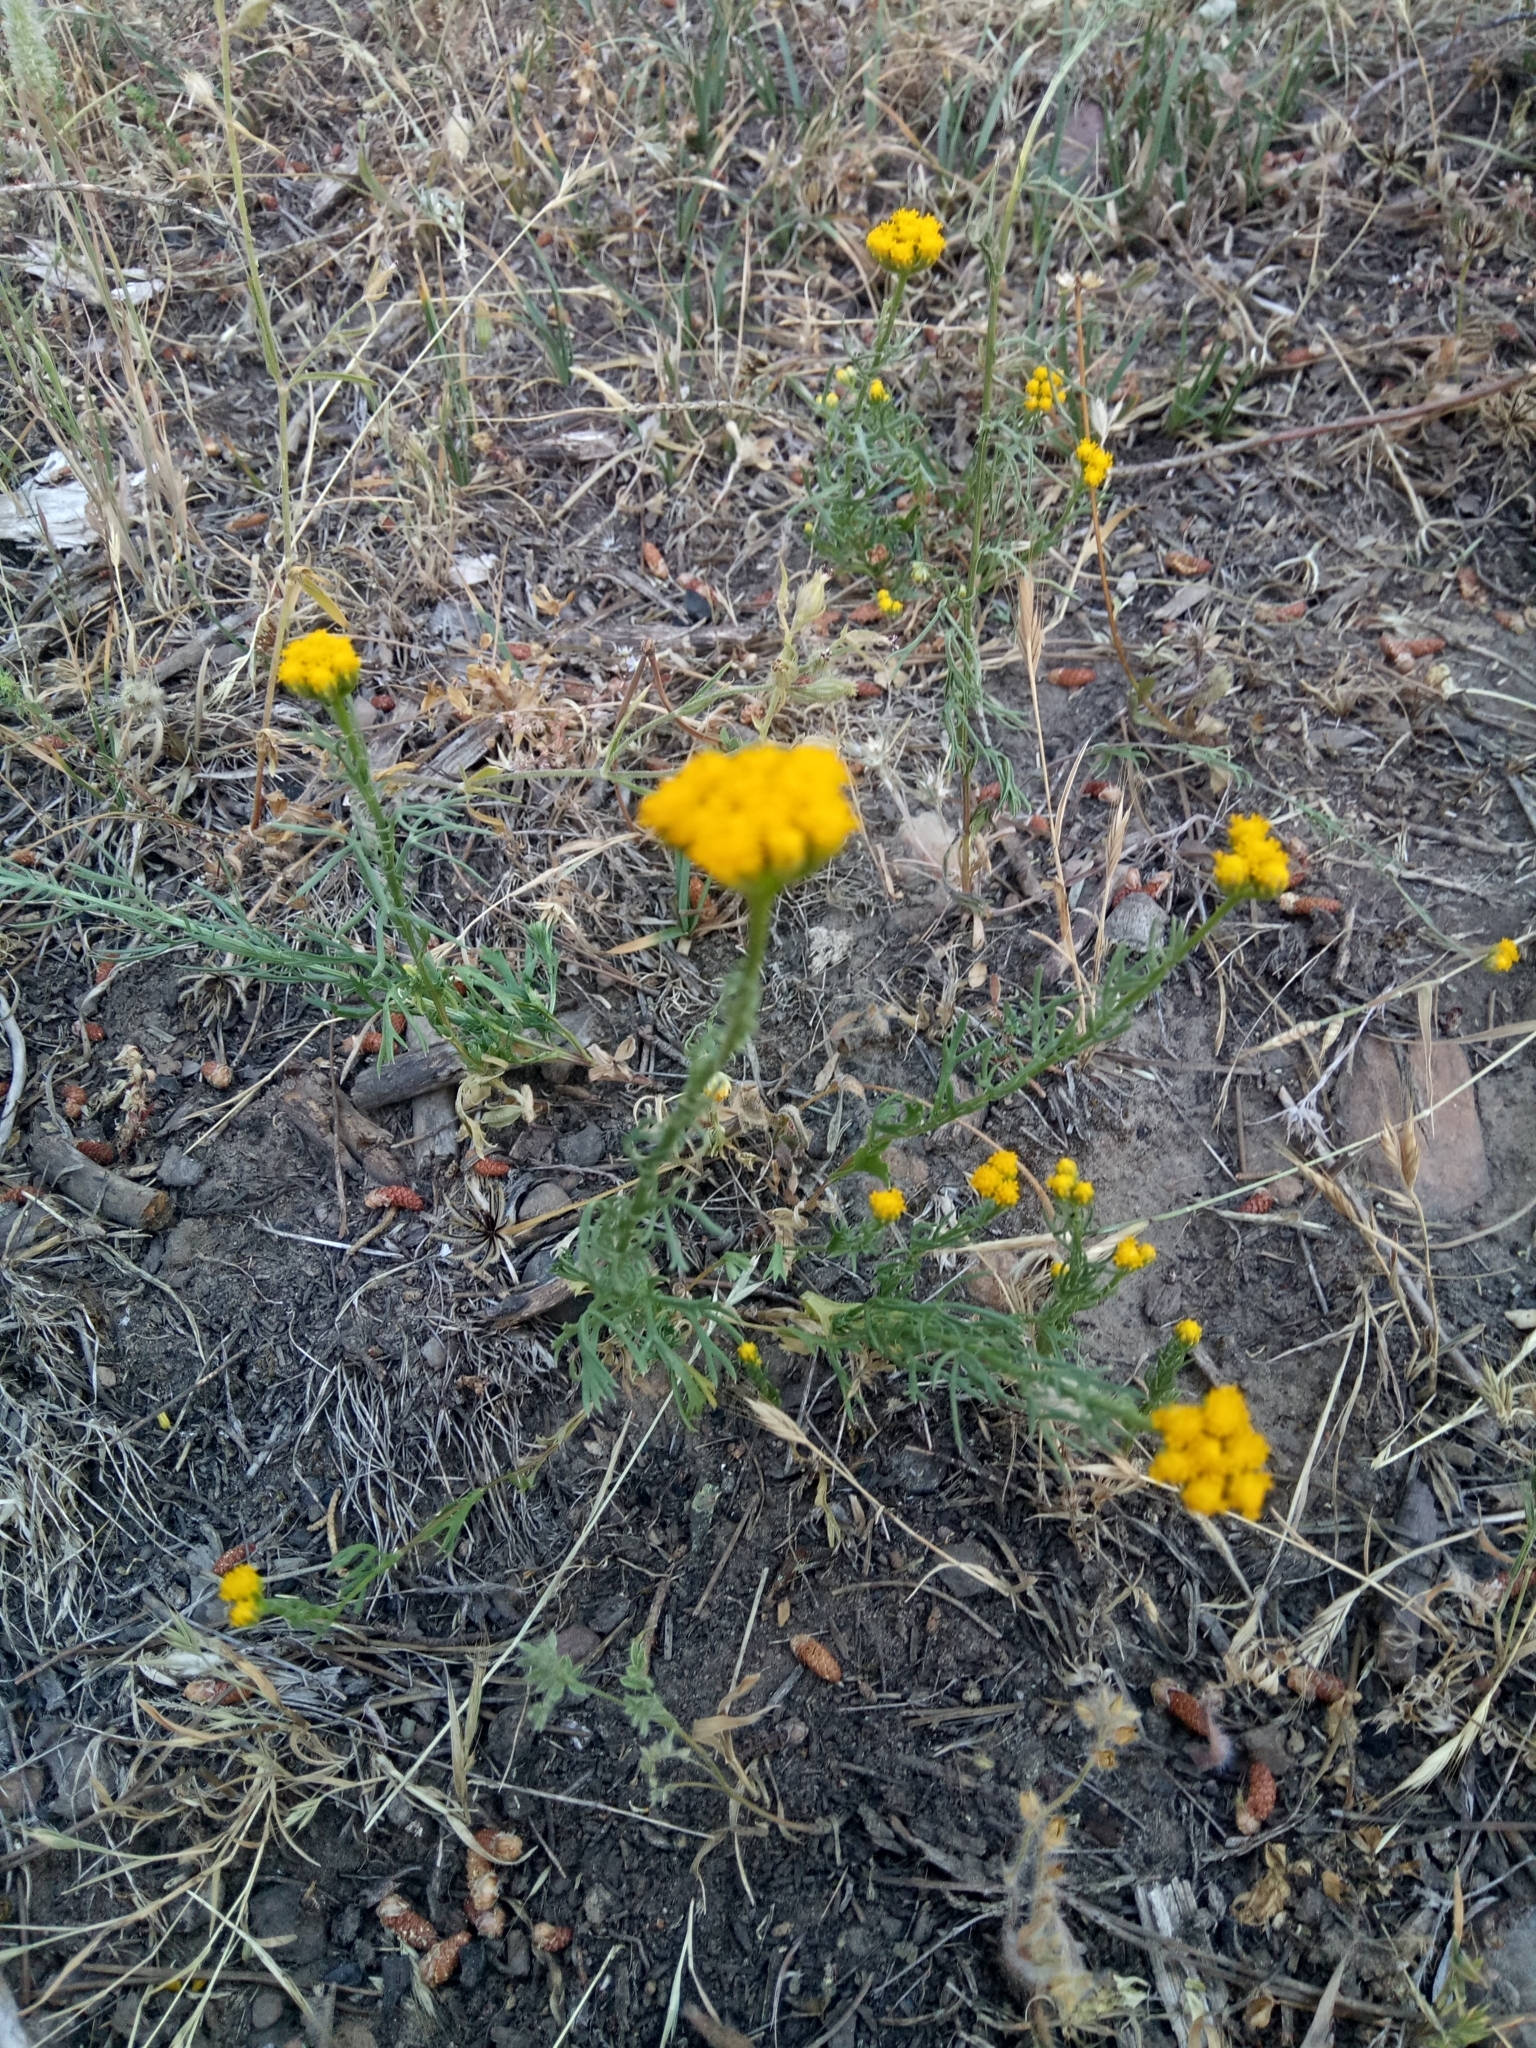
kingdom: Plantae
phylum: Tracheophyta
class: Magnoliopsida
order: Asterales
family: Asteraceae
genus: Lonas
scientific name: Lonas annua
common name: African daisy
